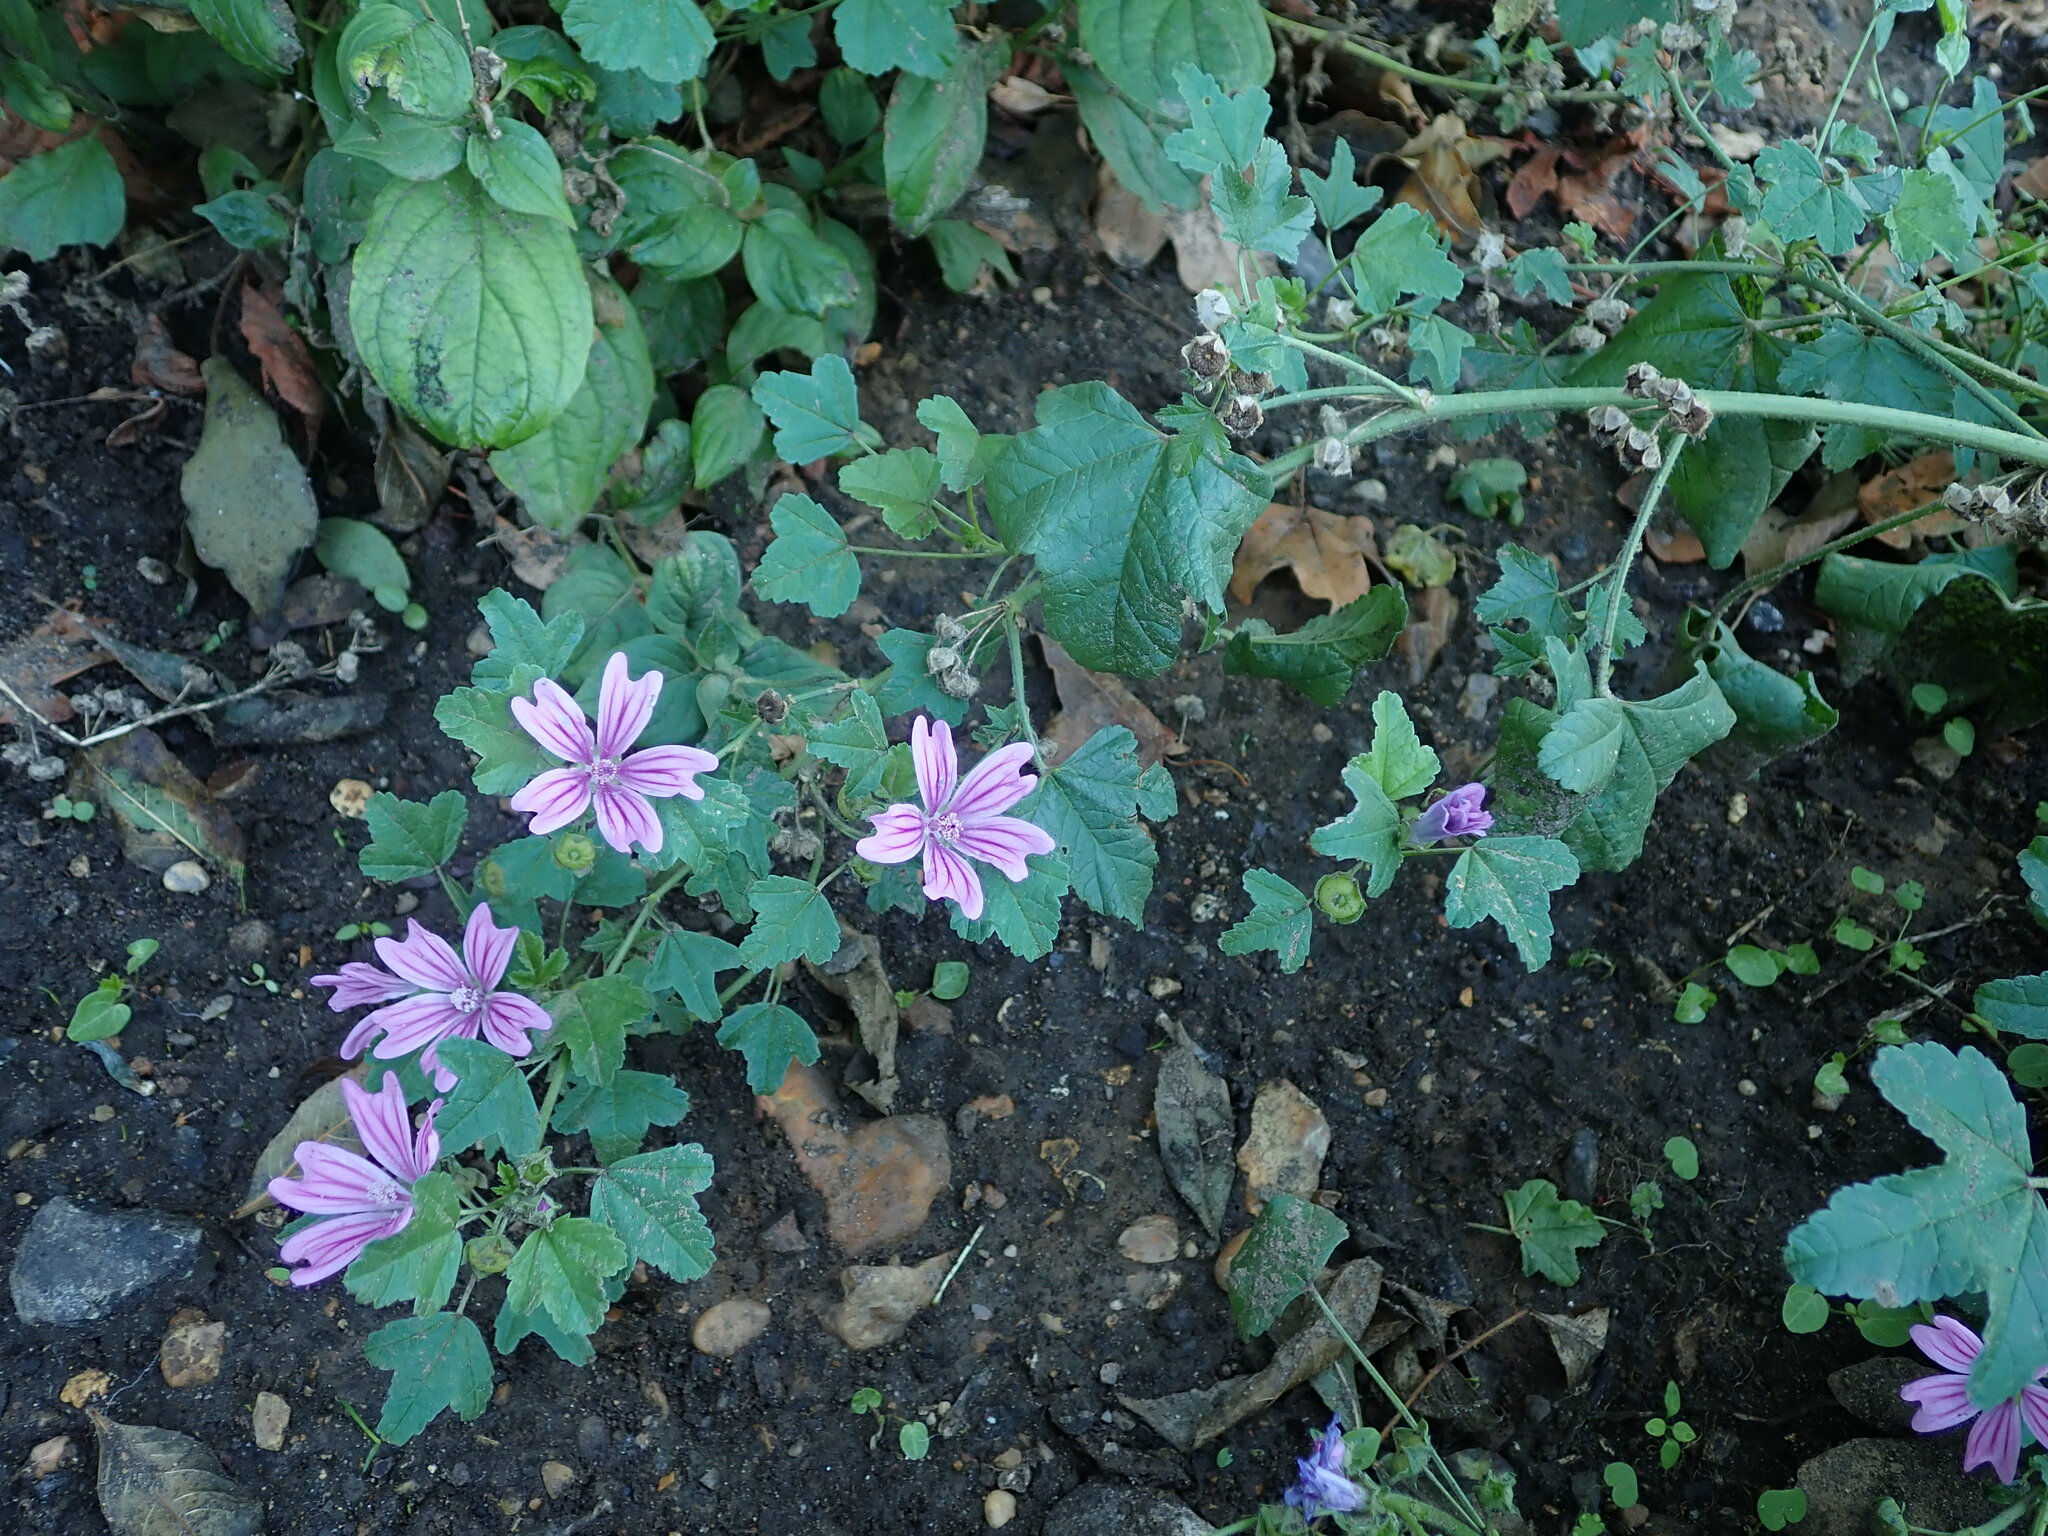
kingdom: Plantae
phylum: Tracheophyta
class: Magnoliopsida
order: Malvales
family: Malvaceae
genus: Malva
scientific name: Malva sylvestris
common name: Common mallow
